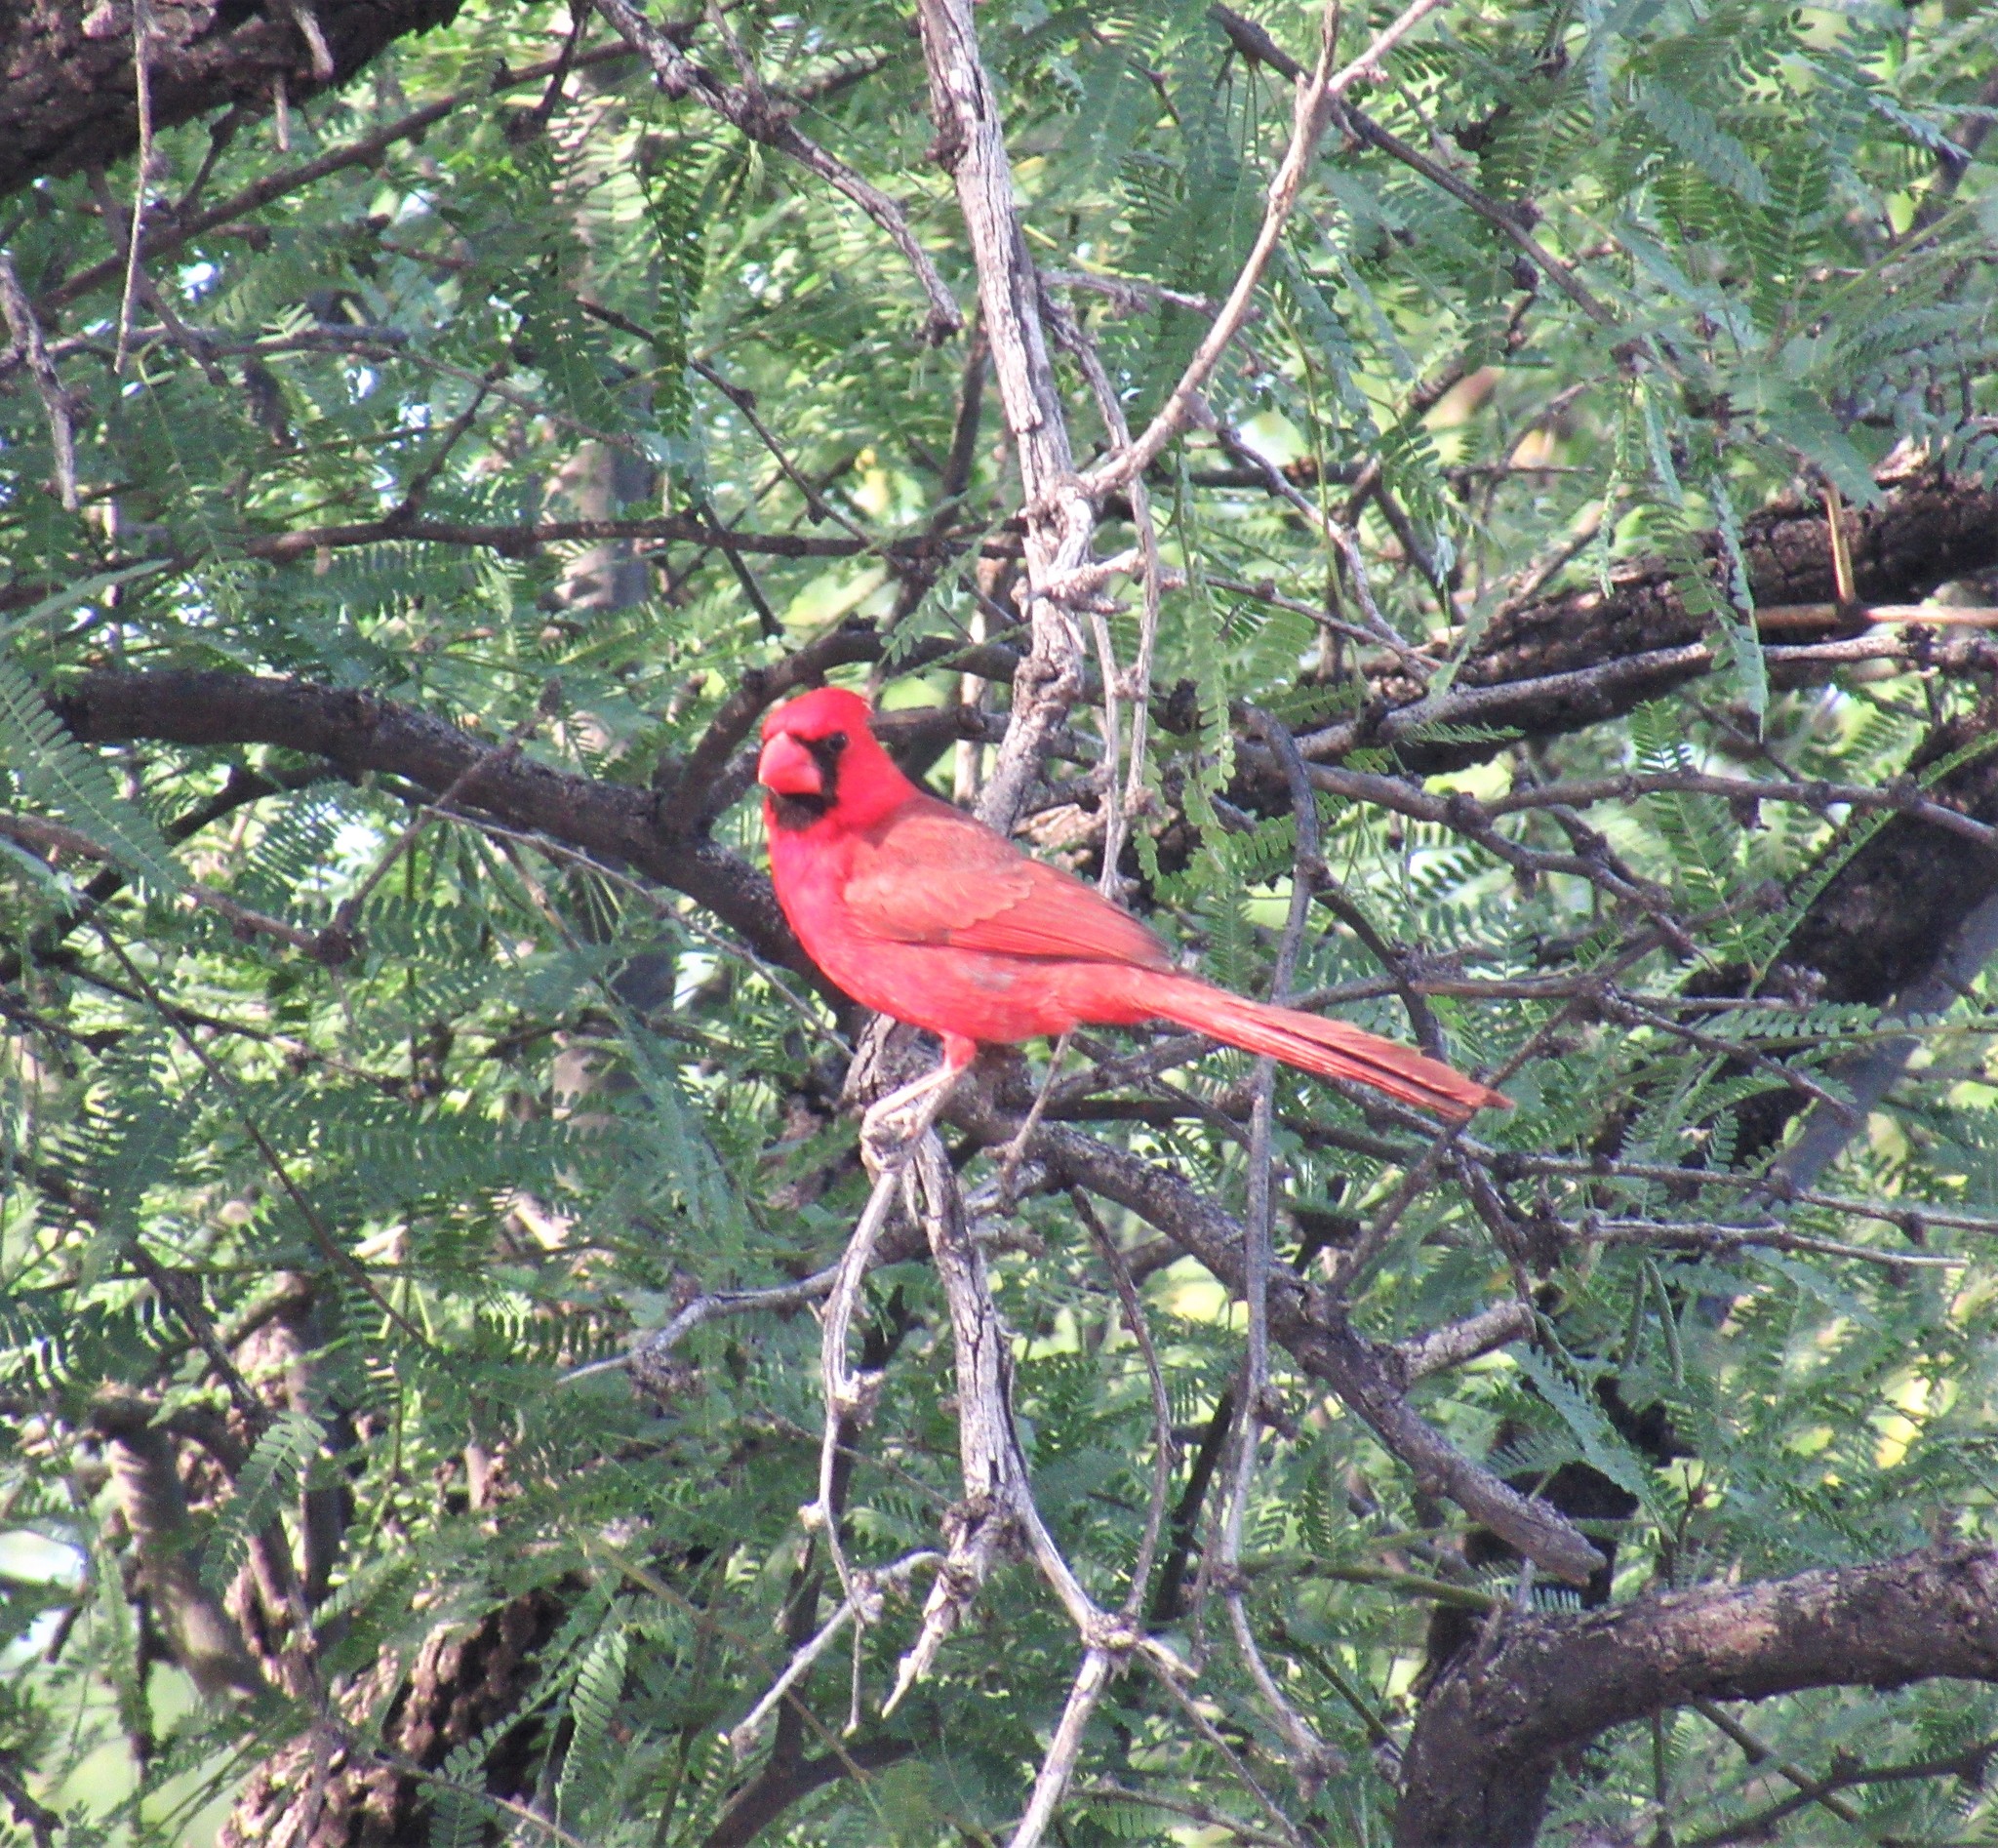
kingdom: Animalia
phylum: Chordata
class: Aves
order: Passeriformes
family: Cardinalidae
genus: Cardinalis
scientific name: Cardinalis cardinalis
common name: Northern cardinal
